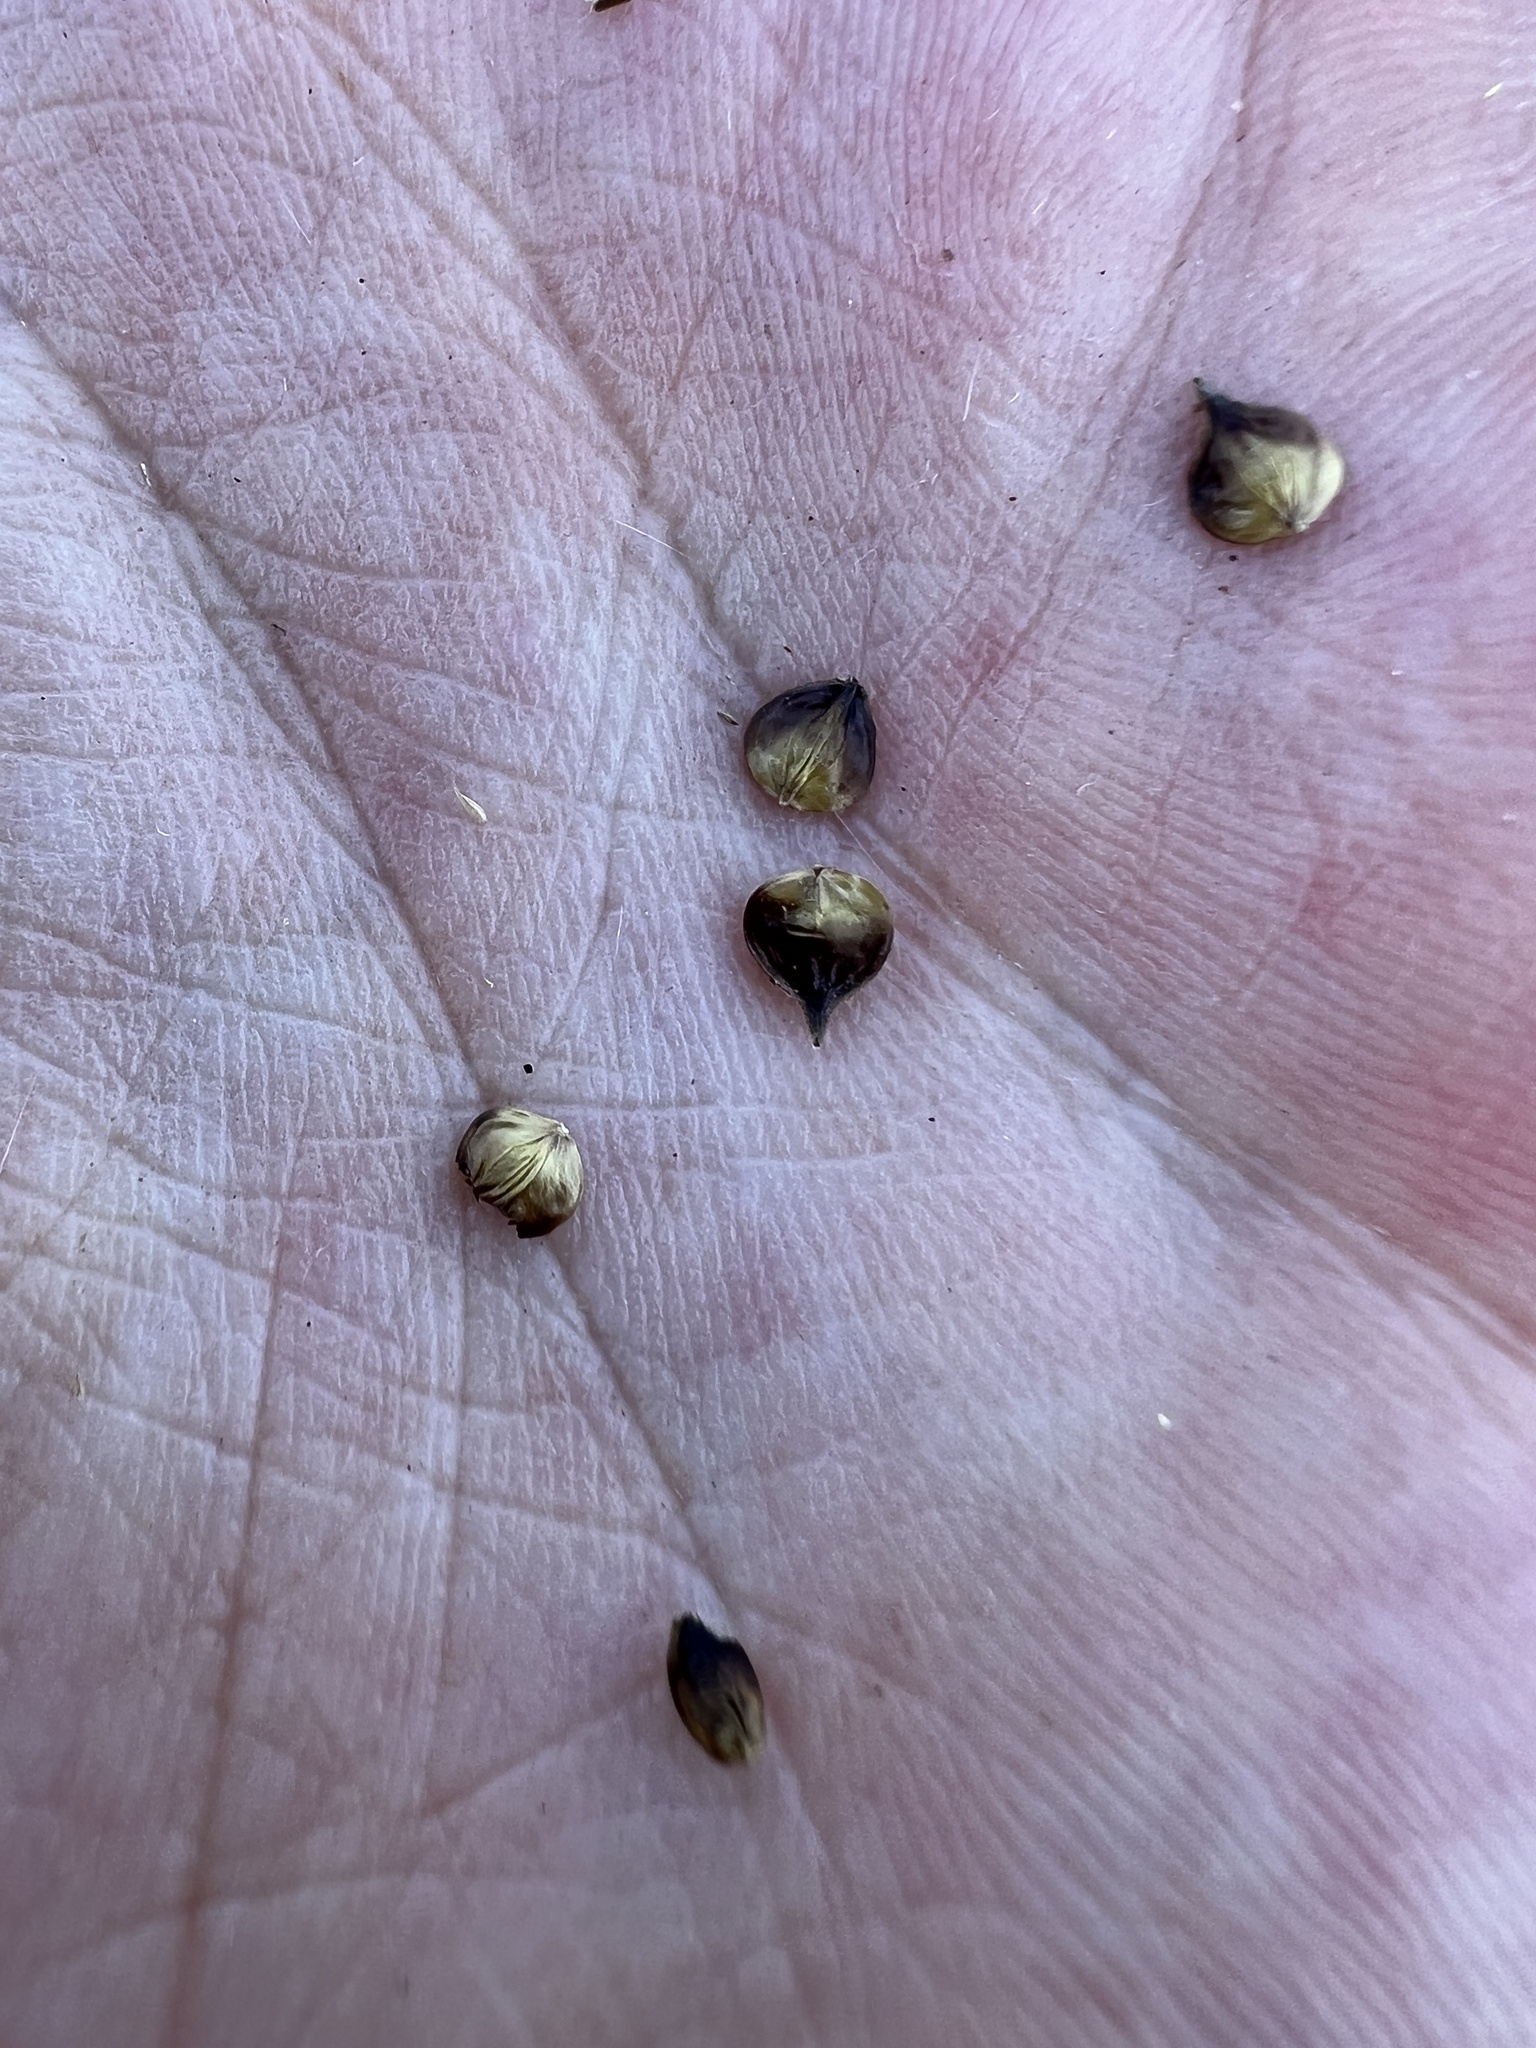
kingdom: Plantae
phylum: Tracheophyta
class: Liliopsida
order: Poales
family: Cyperaceae
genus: Carex
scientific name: Carex gravida
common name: Heavy sedge
